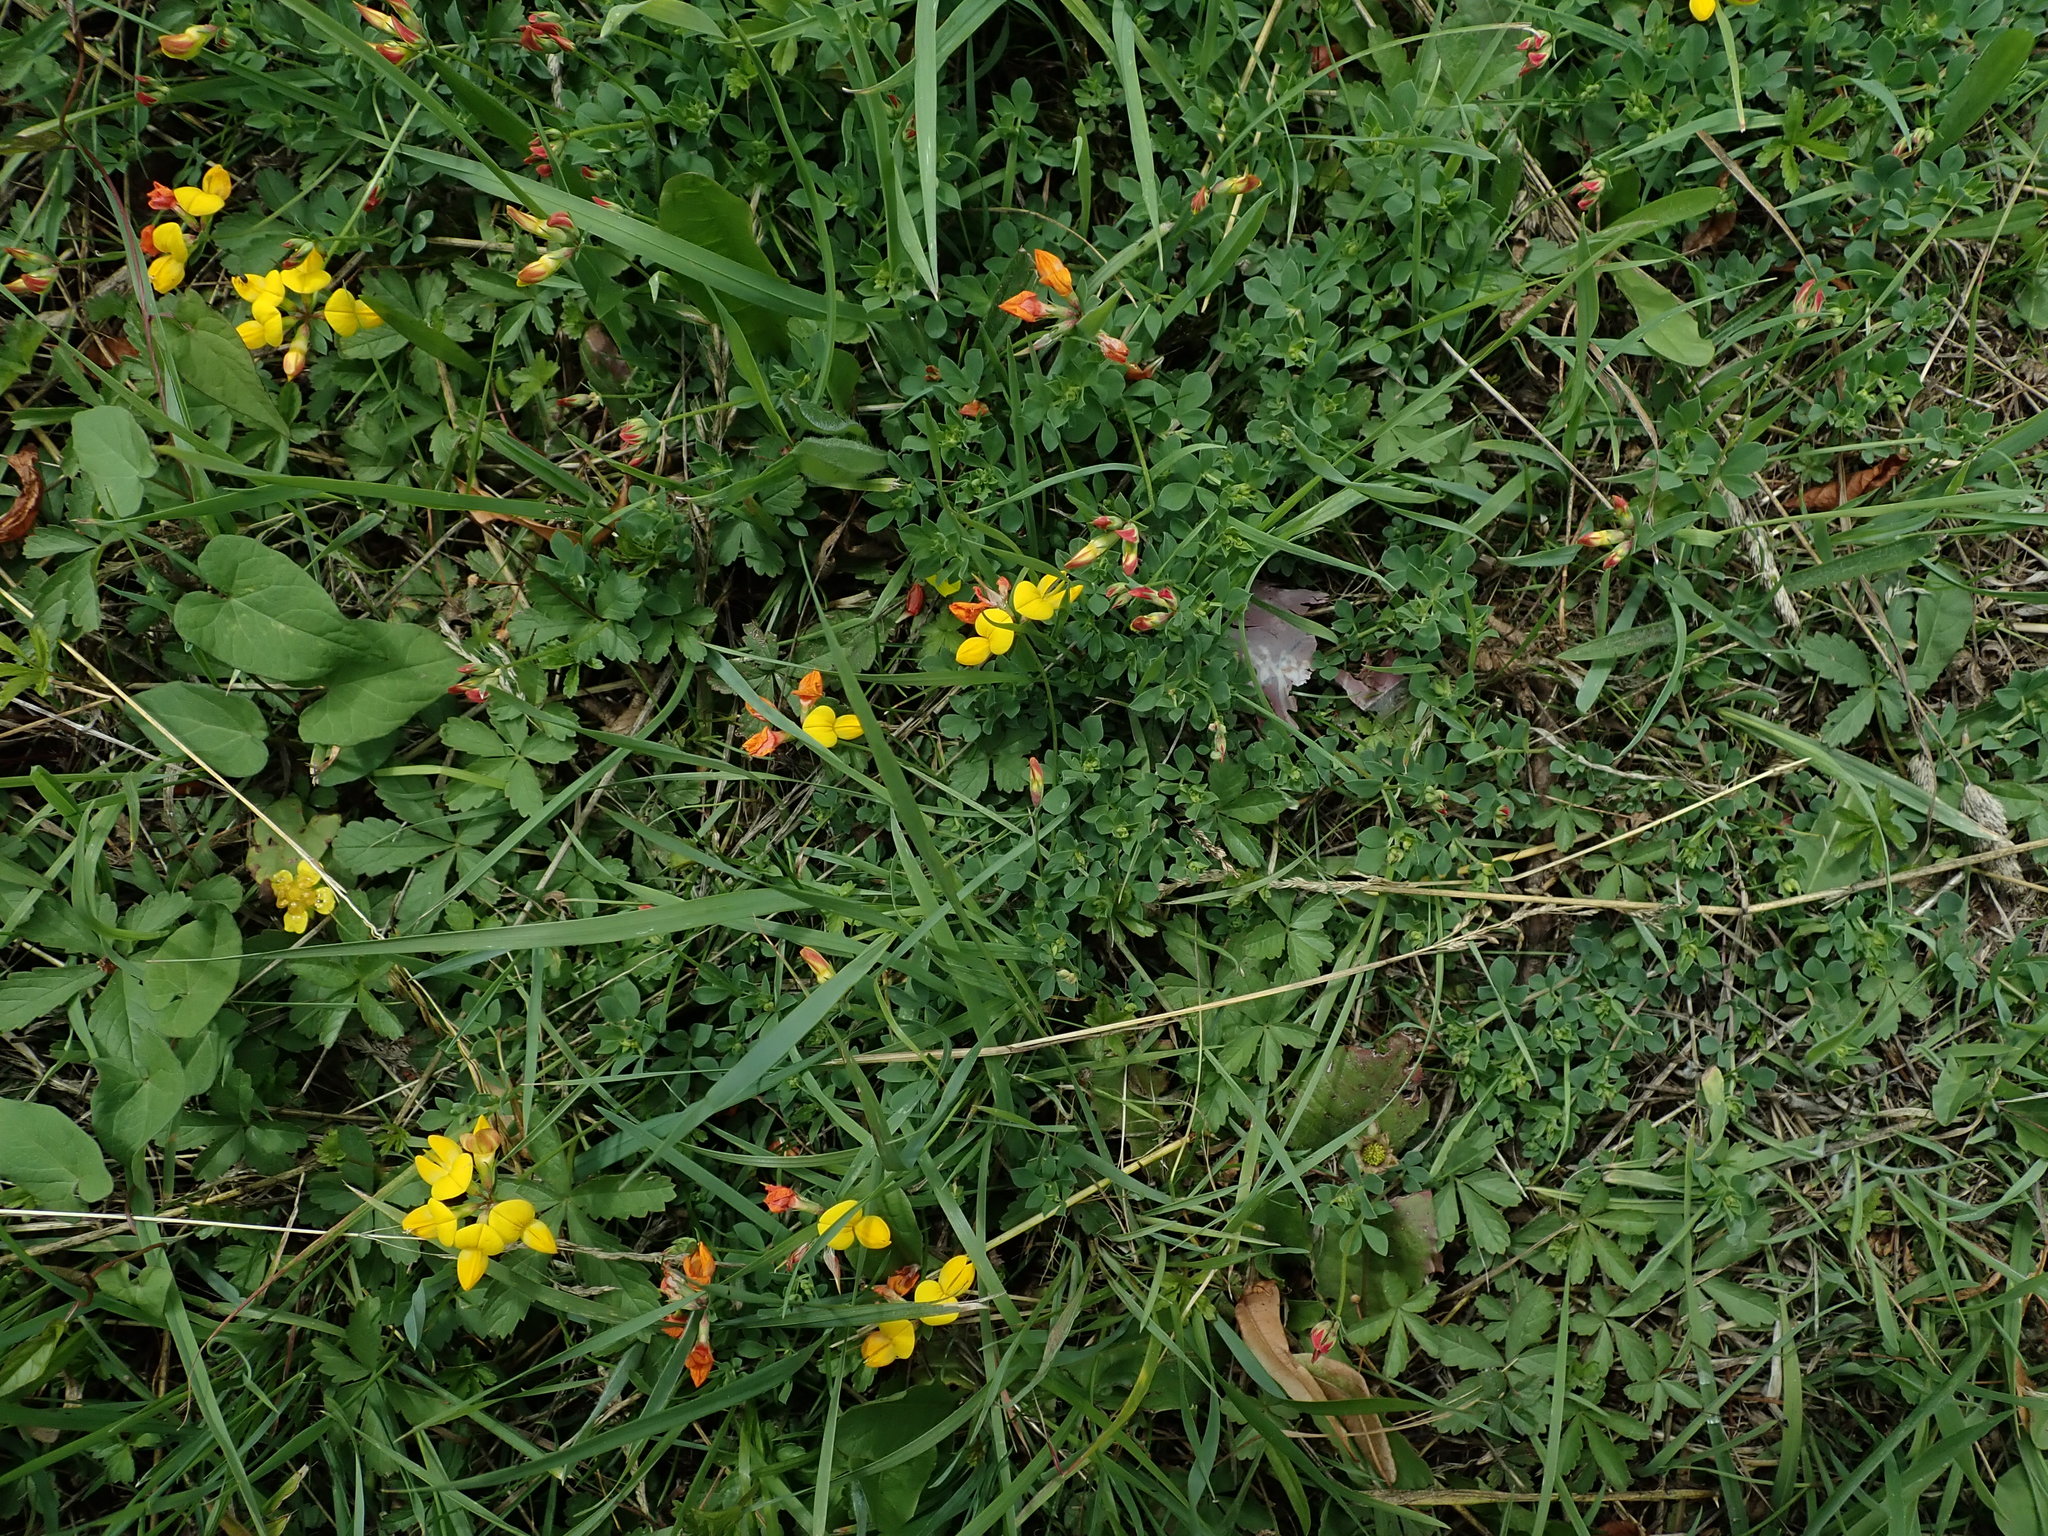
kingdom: Plantae
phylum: Tracheophyta
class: Magnoliopsida
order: Fabales
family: Fabaceae
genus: Lotus
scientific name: Lotus corniculatus
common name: Common bird's-foot-trefoil
